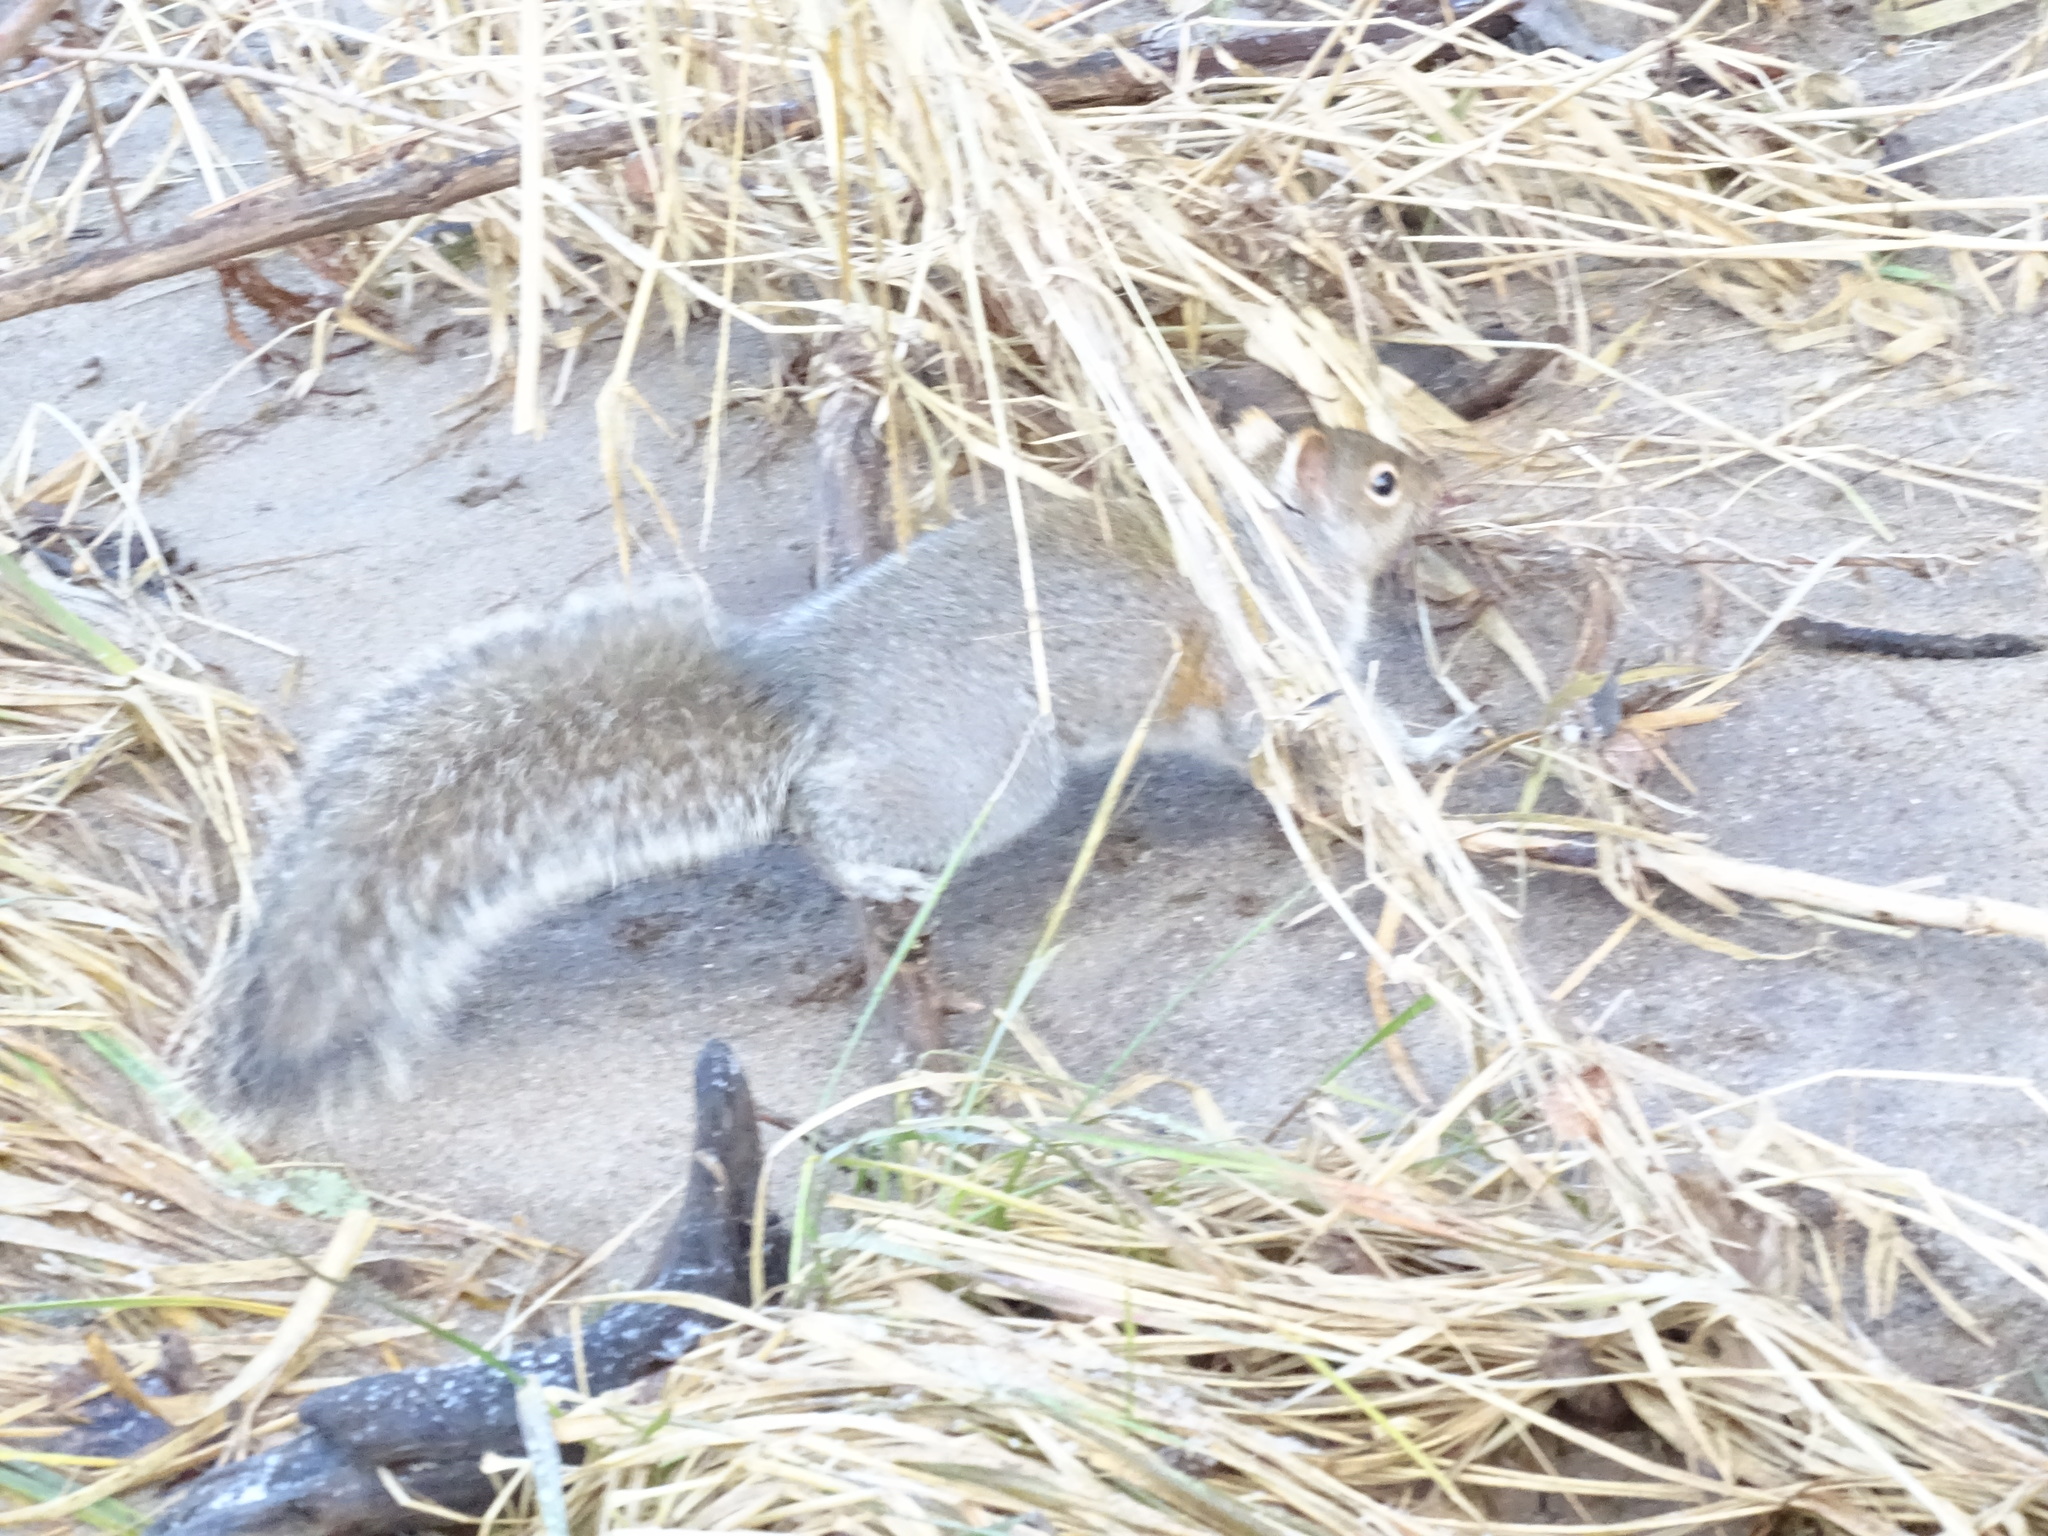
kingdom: Animalia
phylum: Chordata
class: Mammalia
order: Rodentia
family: Sciuridae
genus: Sciurus
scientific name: Sciurus carolinensis
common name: Eastern gray squirrel
